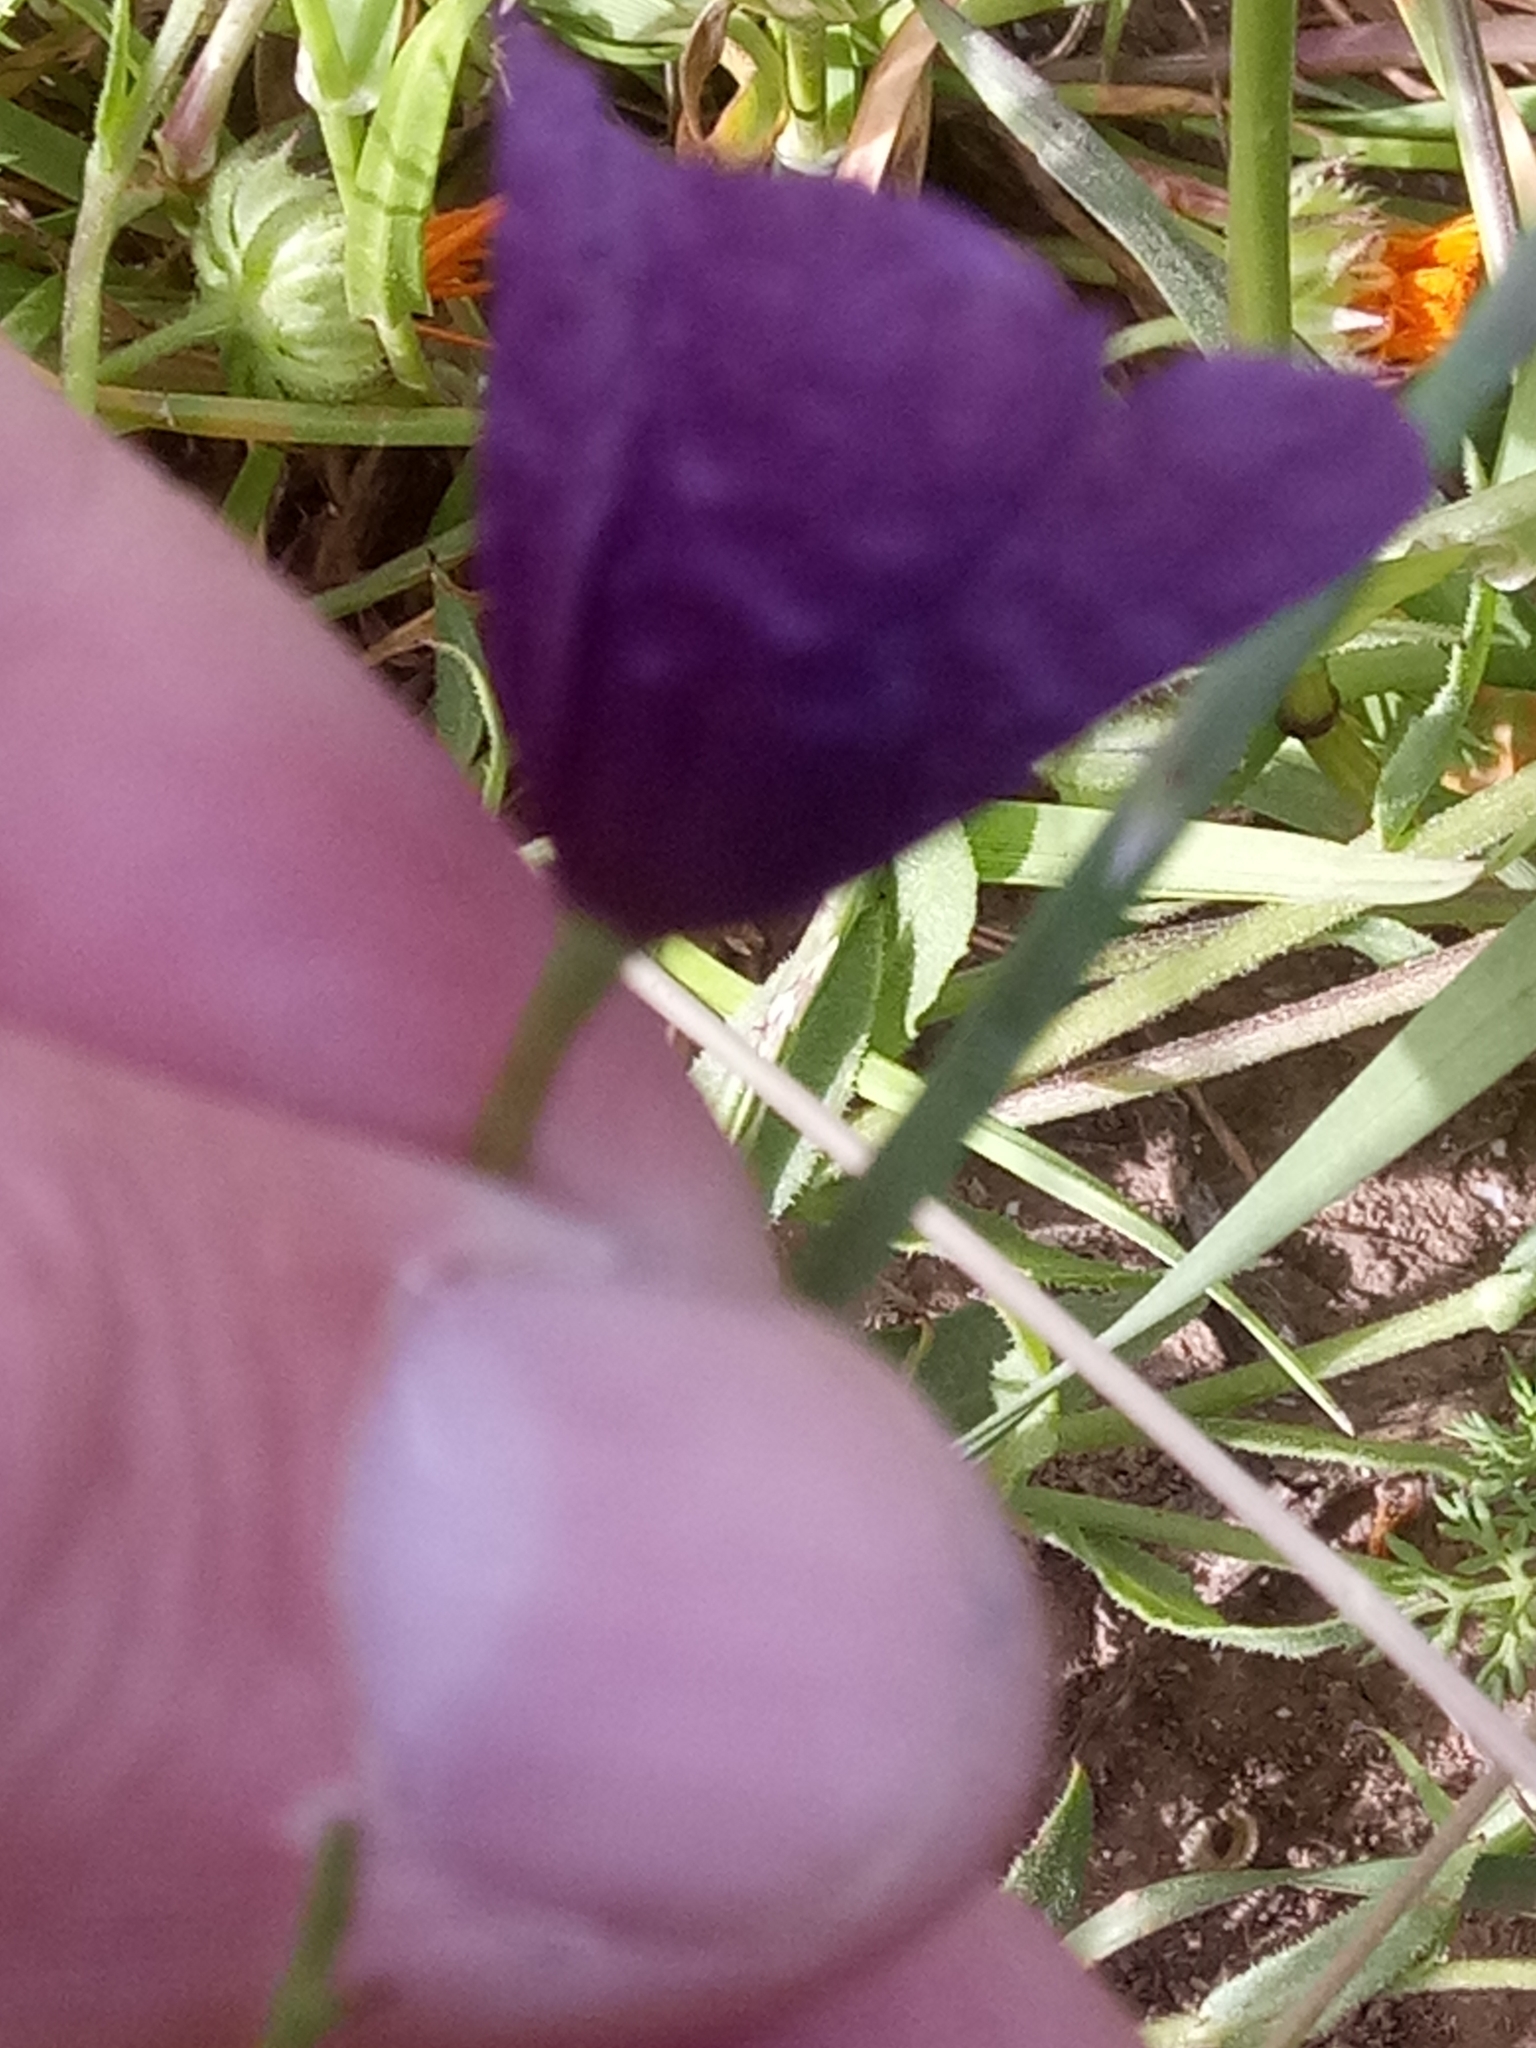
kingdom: Plantae
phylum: Tracheophyta
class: Magnoliopsida
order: Ranunculales
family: Papaveraceae
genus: Roemeria
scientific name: Roemeria hybrida
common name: Violet horned-poppy
